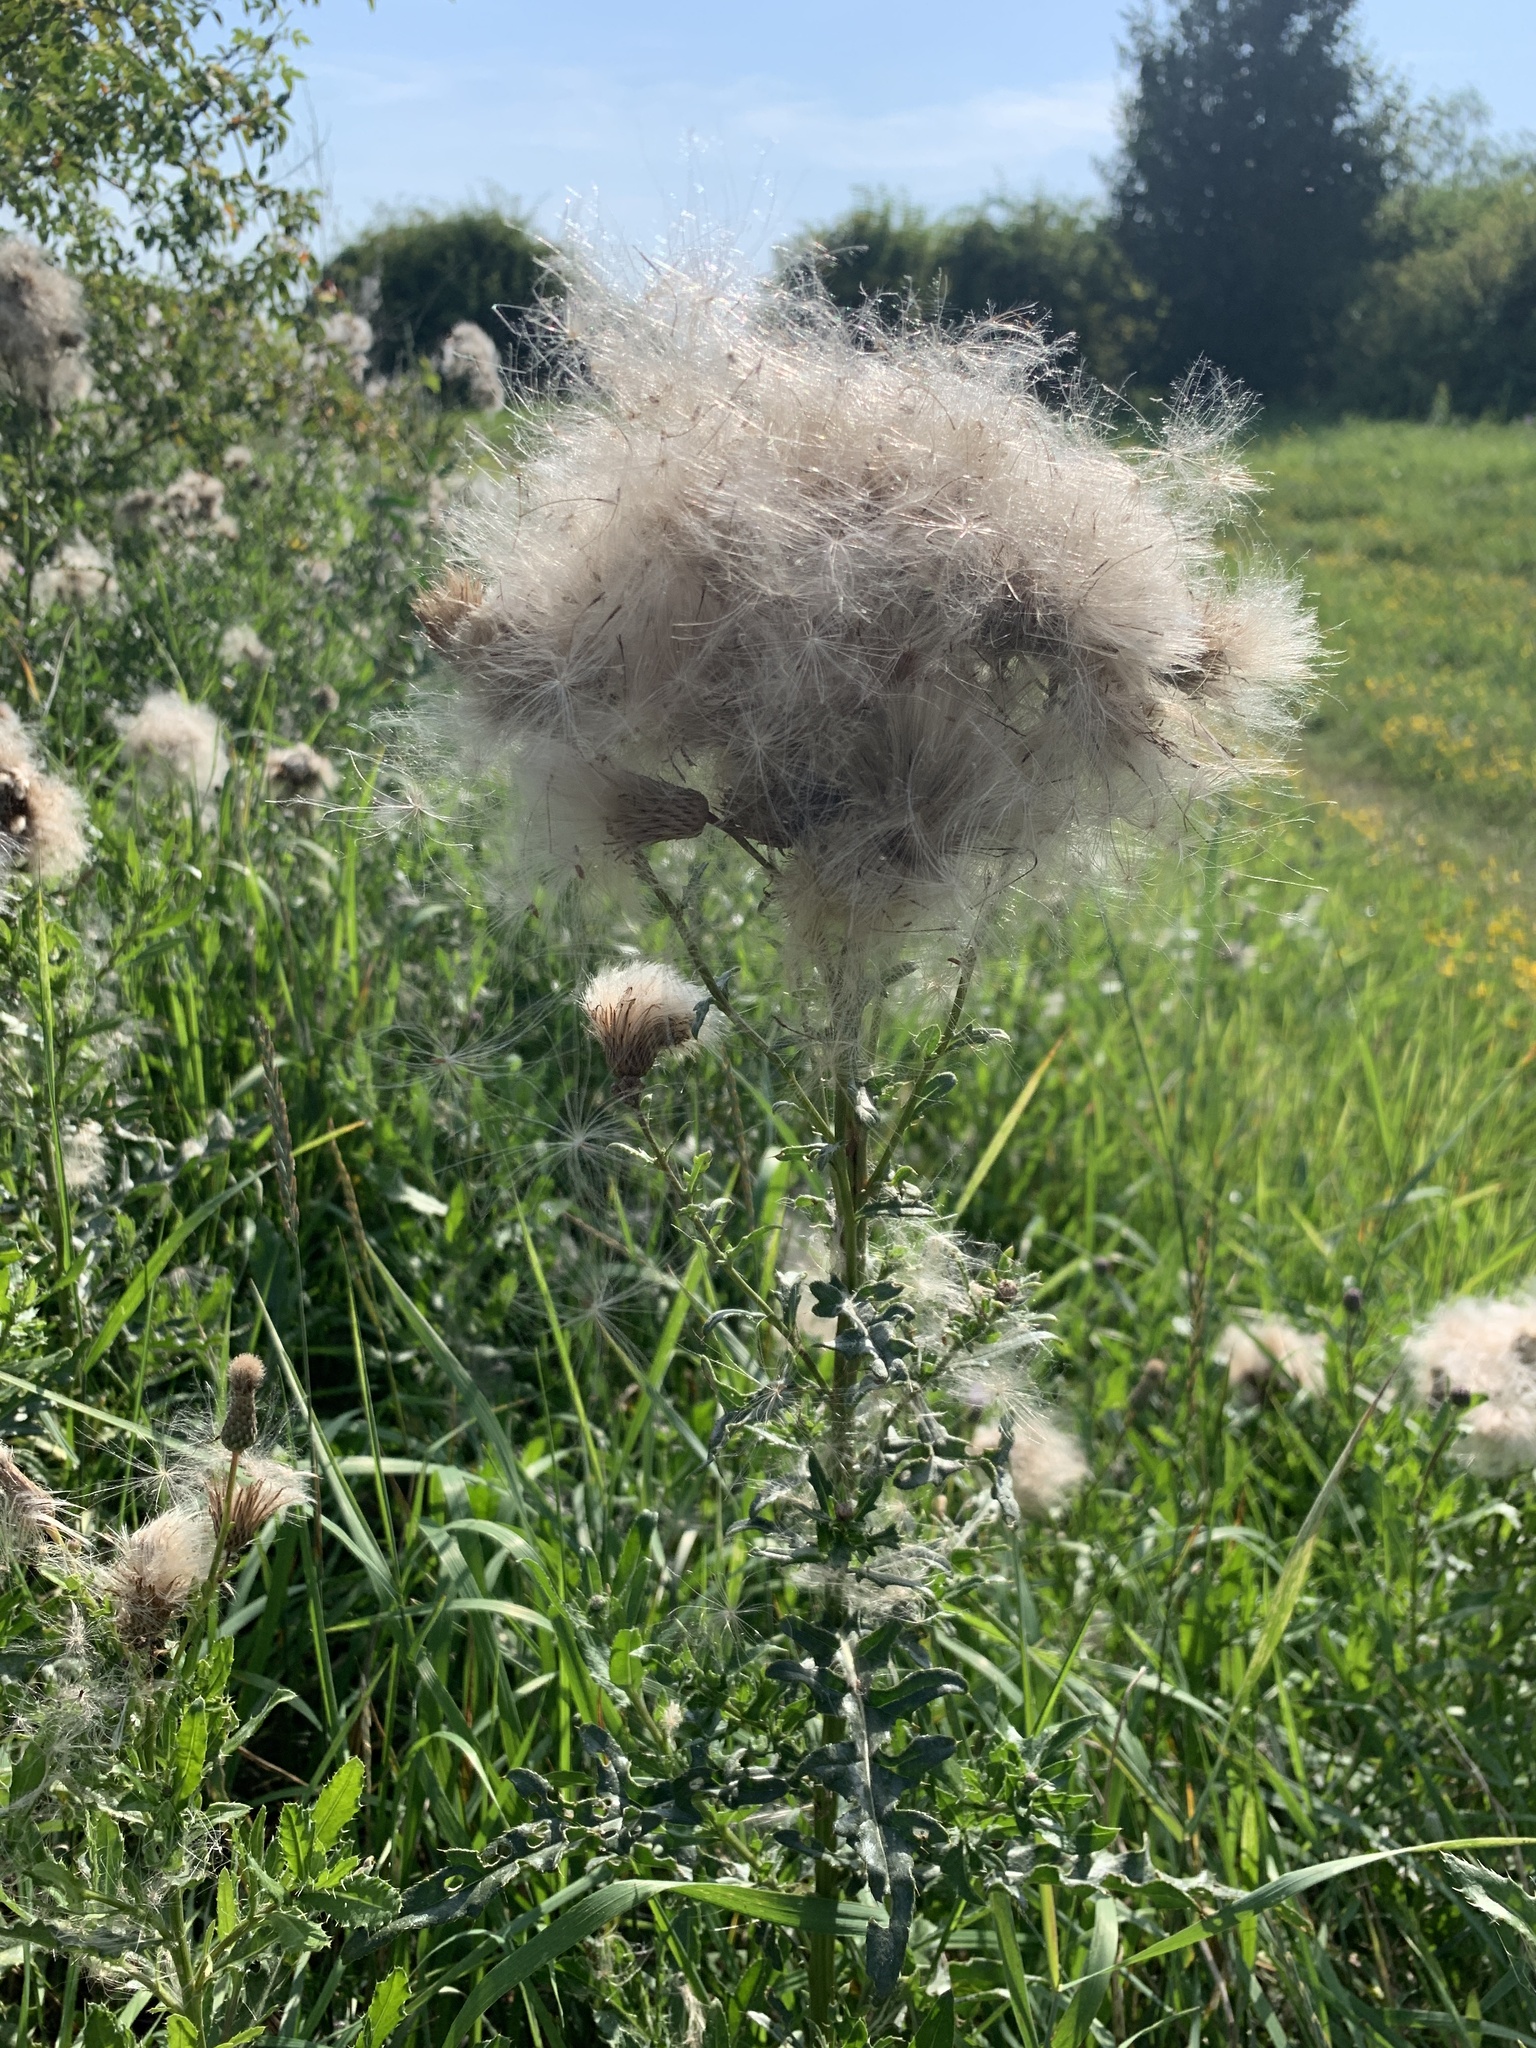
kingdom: Plantae
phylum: Tracheophyta
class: Magnoliopsida
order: Asterales
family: Asteraceae
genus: Cirsium
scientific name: Cirsium arvense
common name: Creeping thistle
